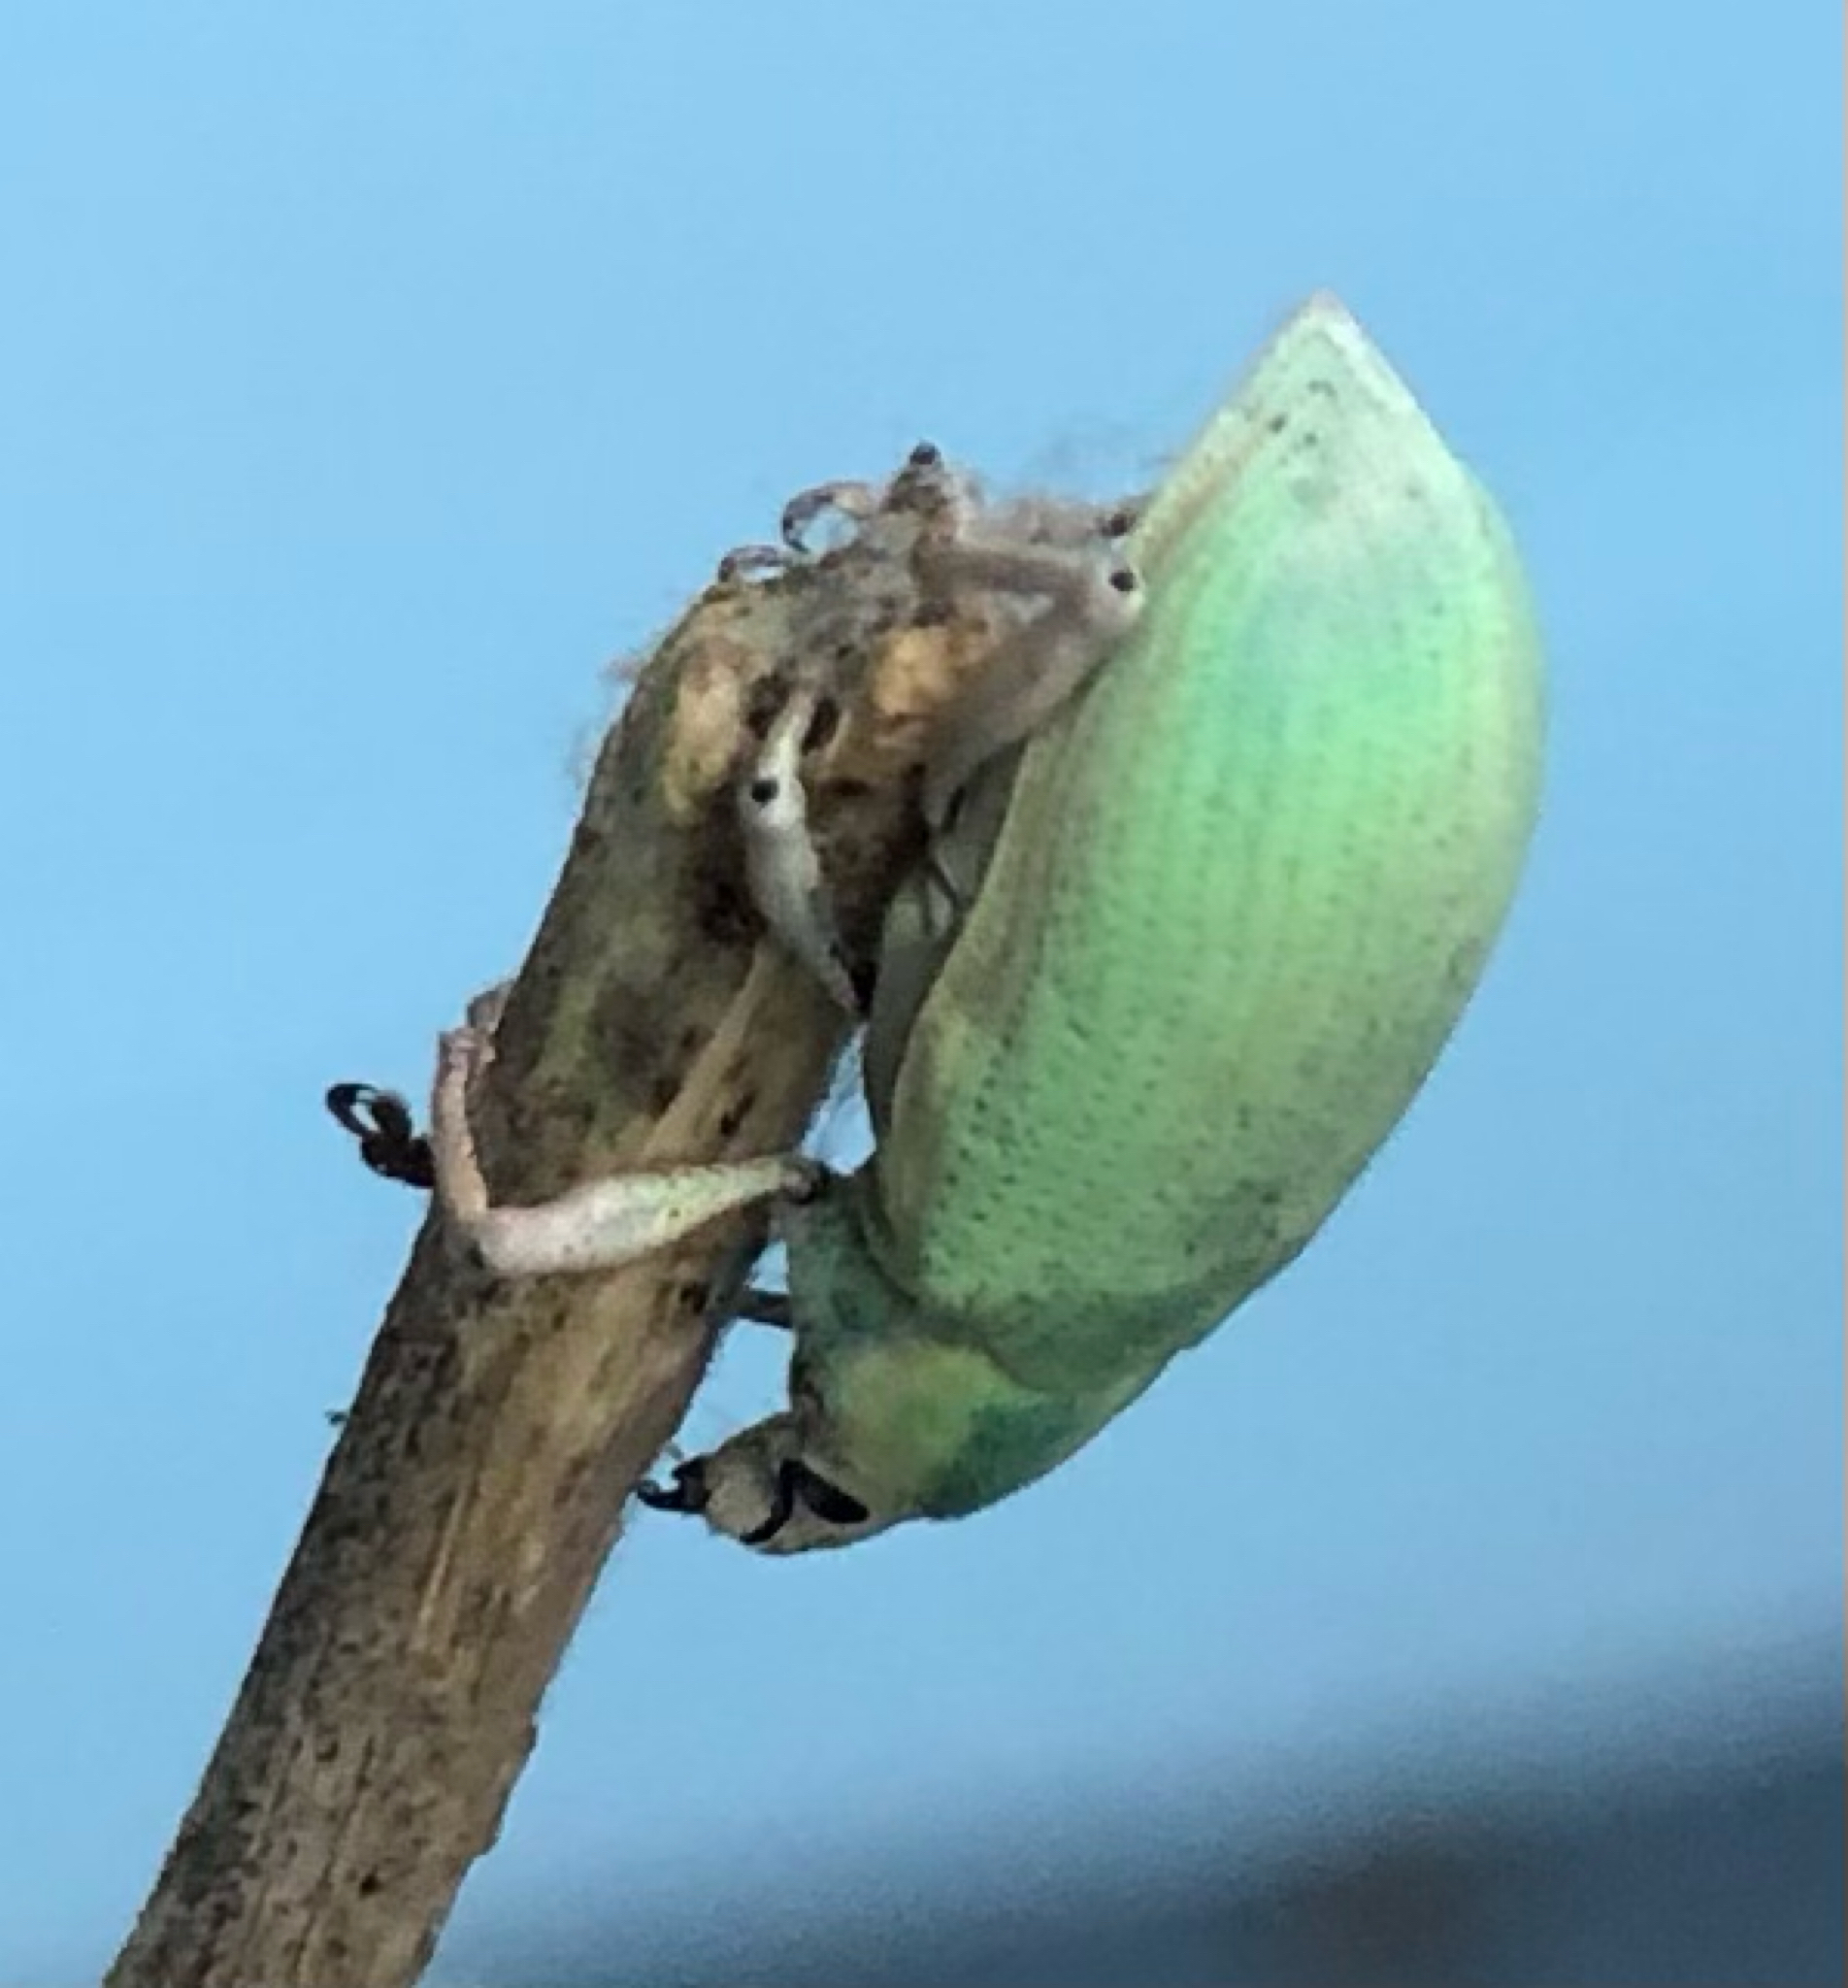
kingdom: Animalia
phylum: Arthropoda
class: Insecta
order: Coleoptera
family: Curculionidae
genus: Pachnaeus
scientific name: Pachnaeus litus
